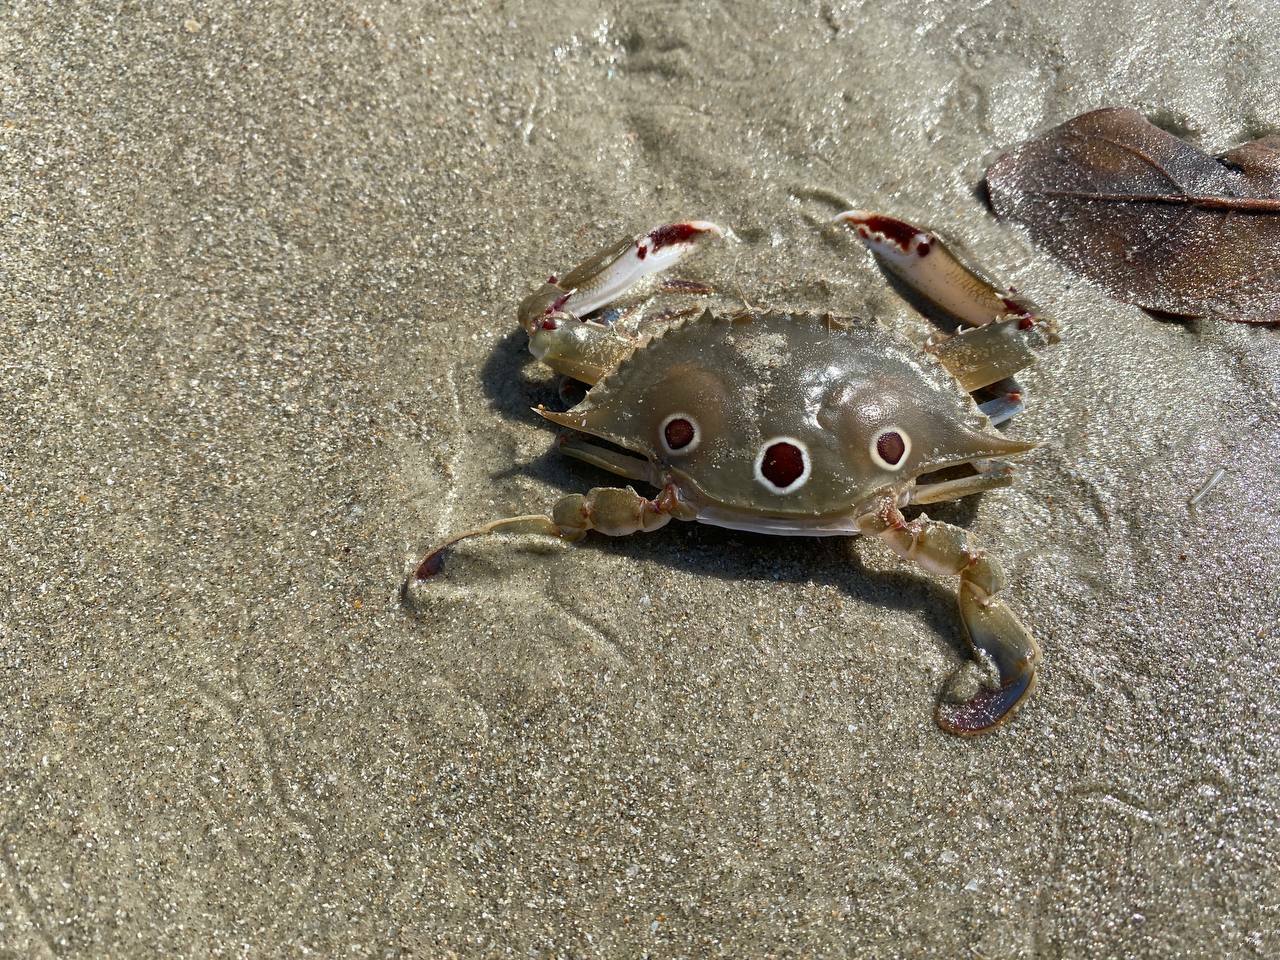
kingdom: Animalia
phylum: Arthropoda
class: Malacostraca
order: Decapoda
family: Portunidae
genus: Portunus
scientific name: Portunus sanguinolentus
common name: Blood-spotted swimming crab
